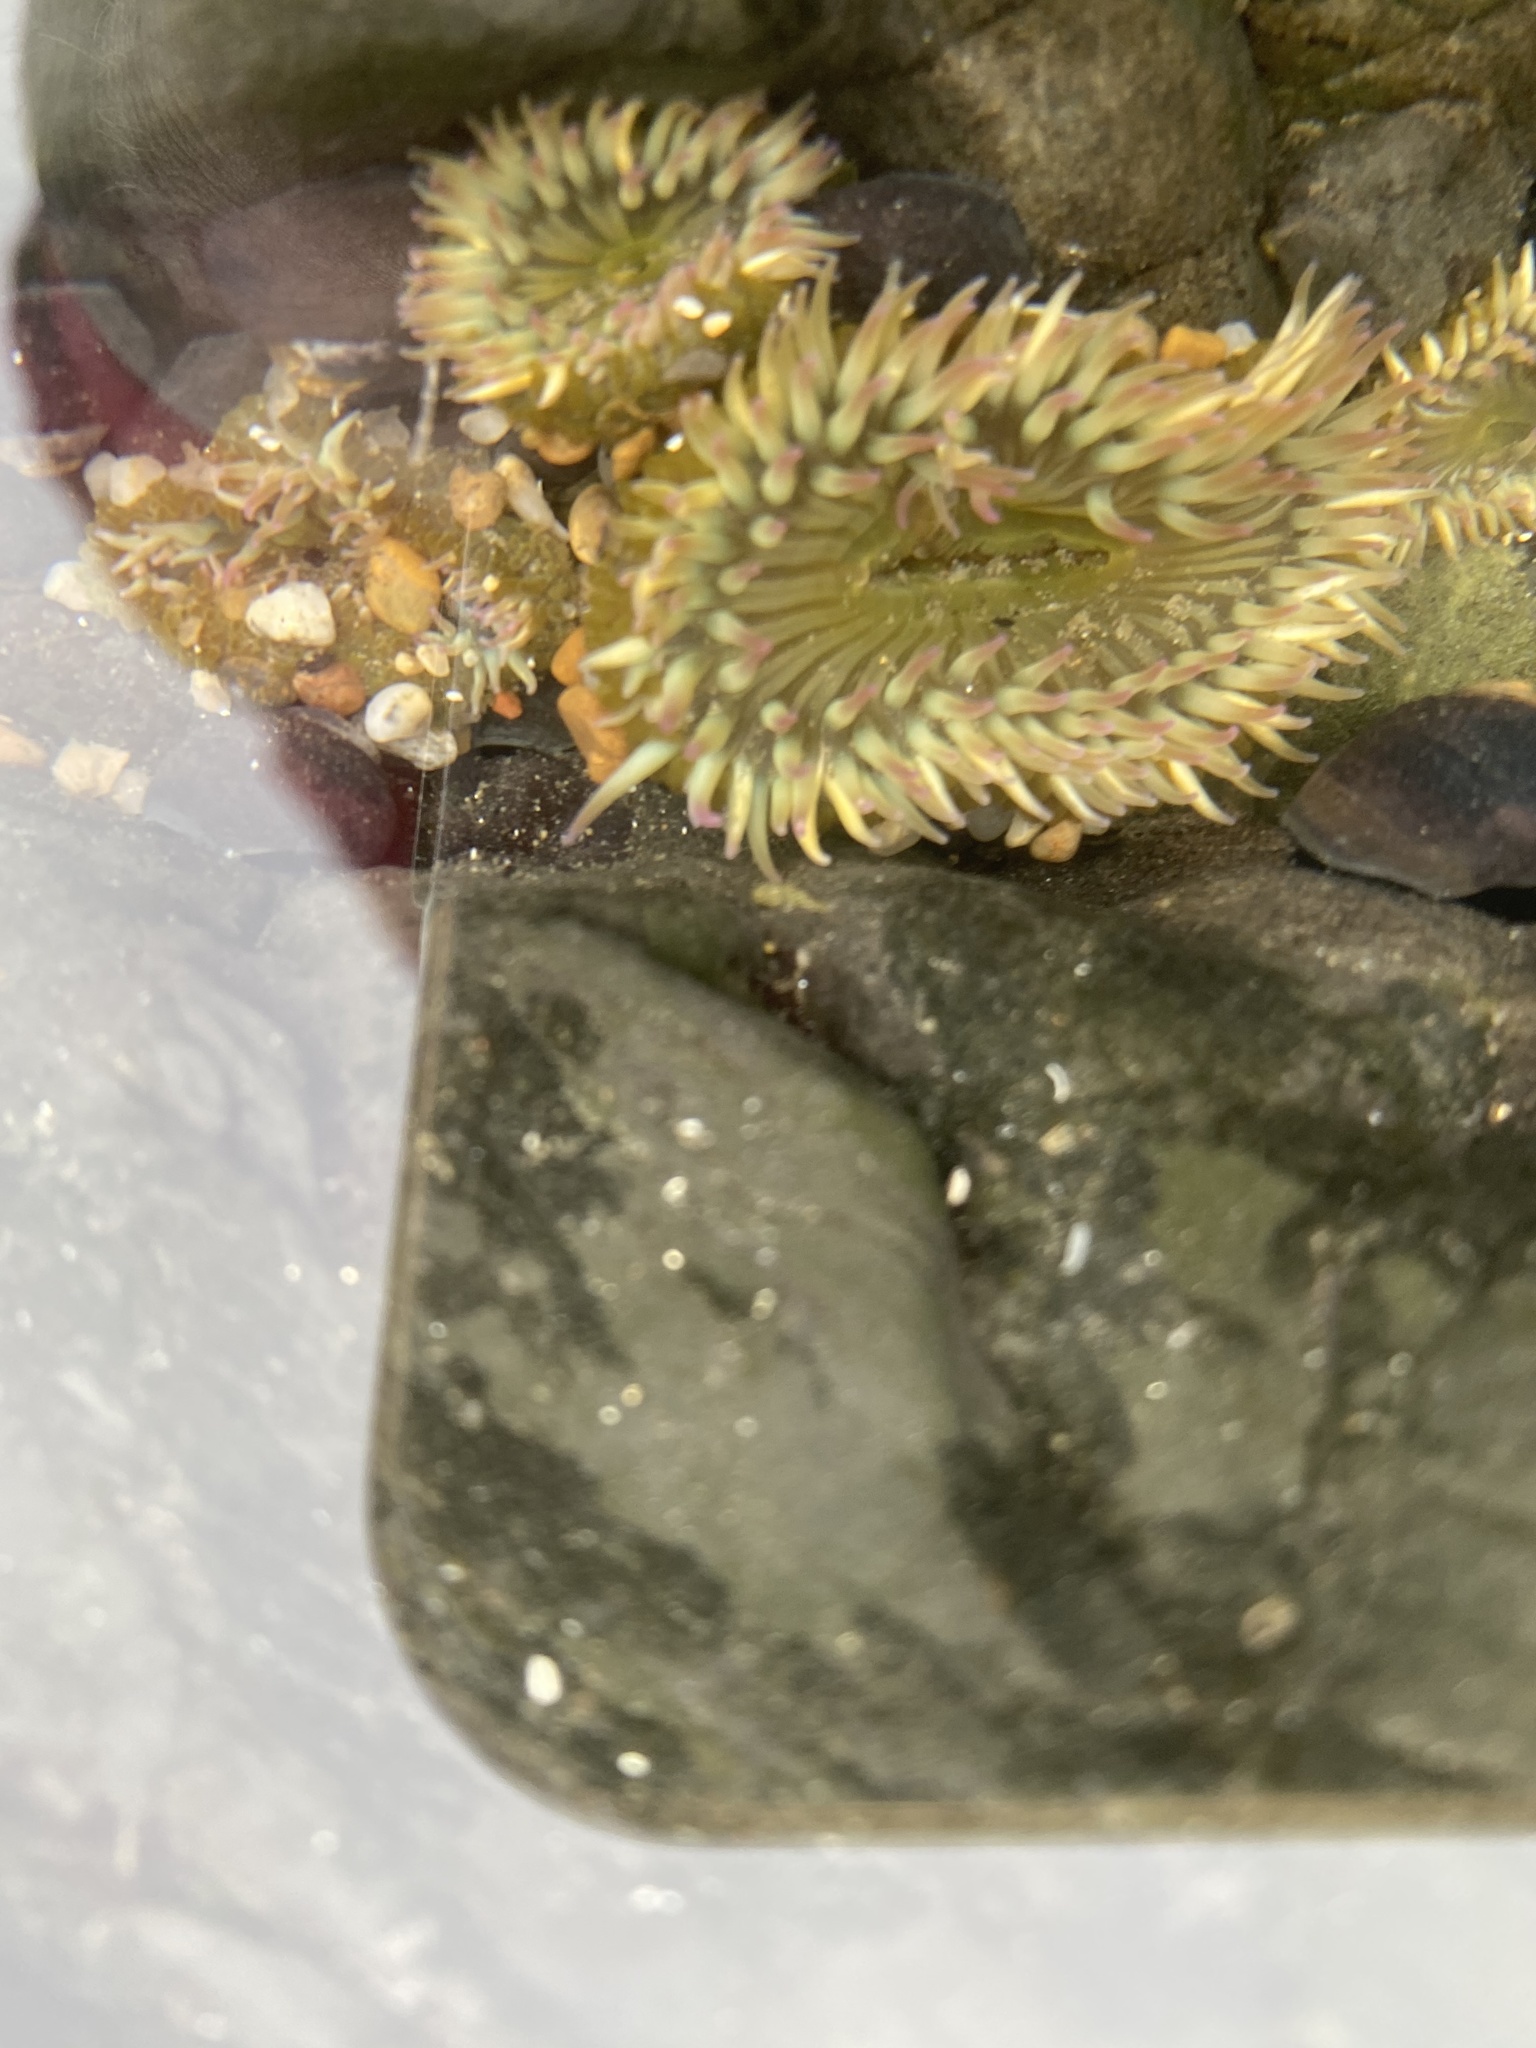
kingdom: Animalia
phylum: Cnidaria
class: Anthozoa
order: Actiniaria
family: Actiniidae
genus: Anthopleura
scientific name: Anthopleura elegantissima
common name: Clonal anemone
